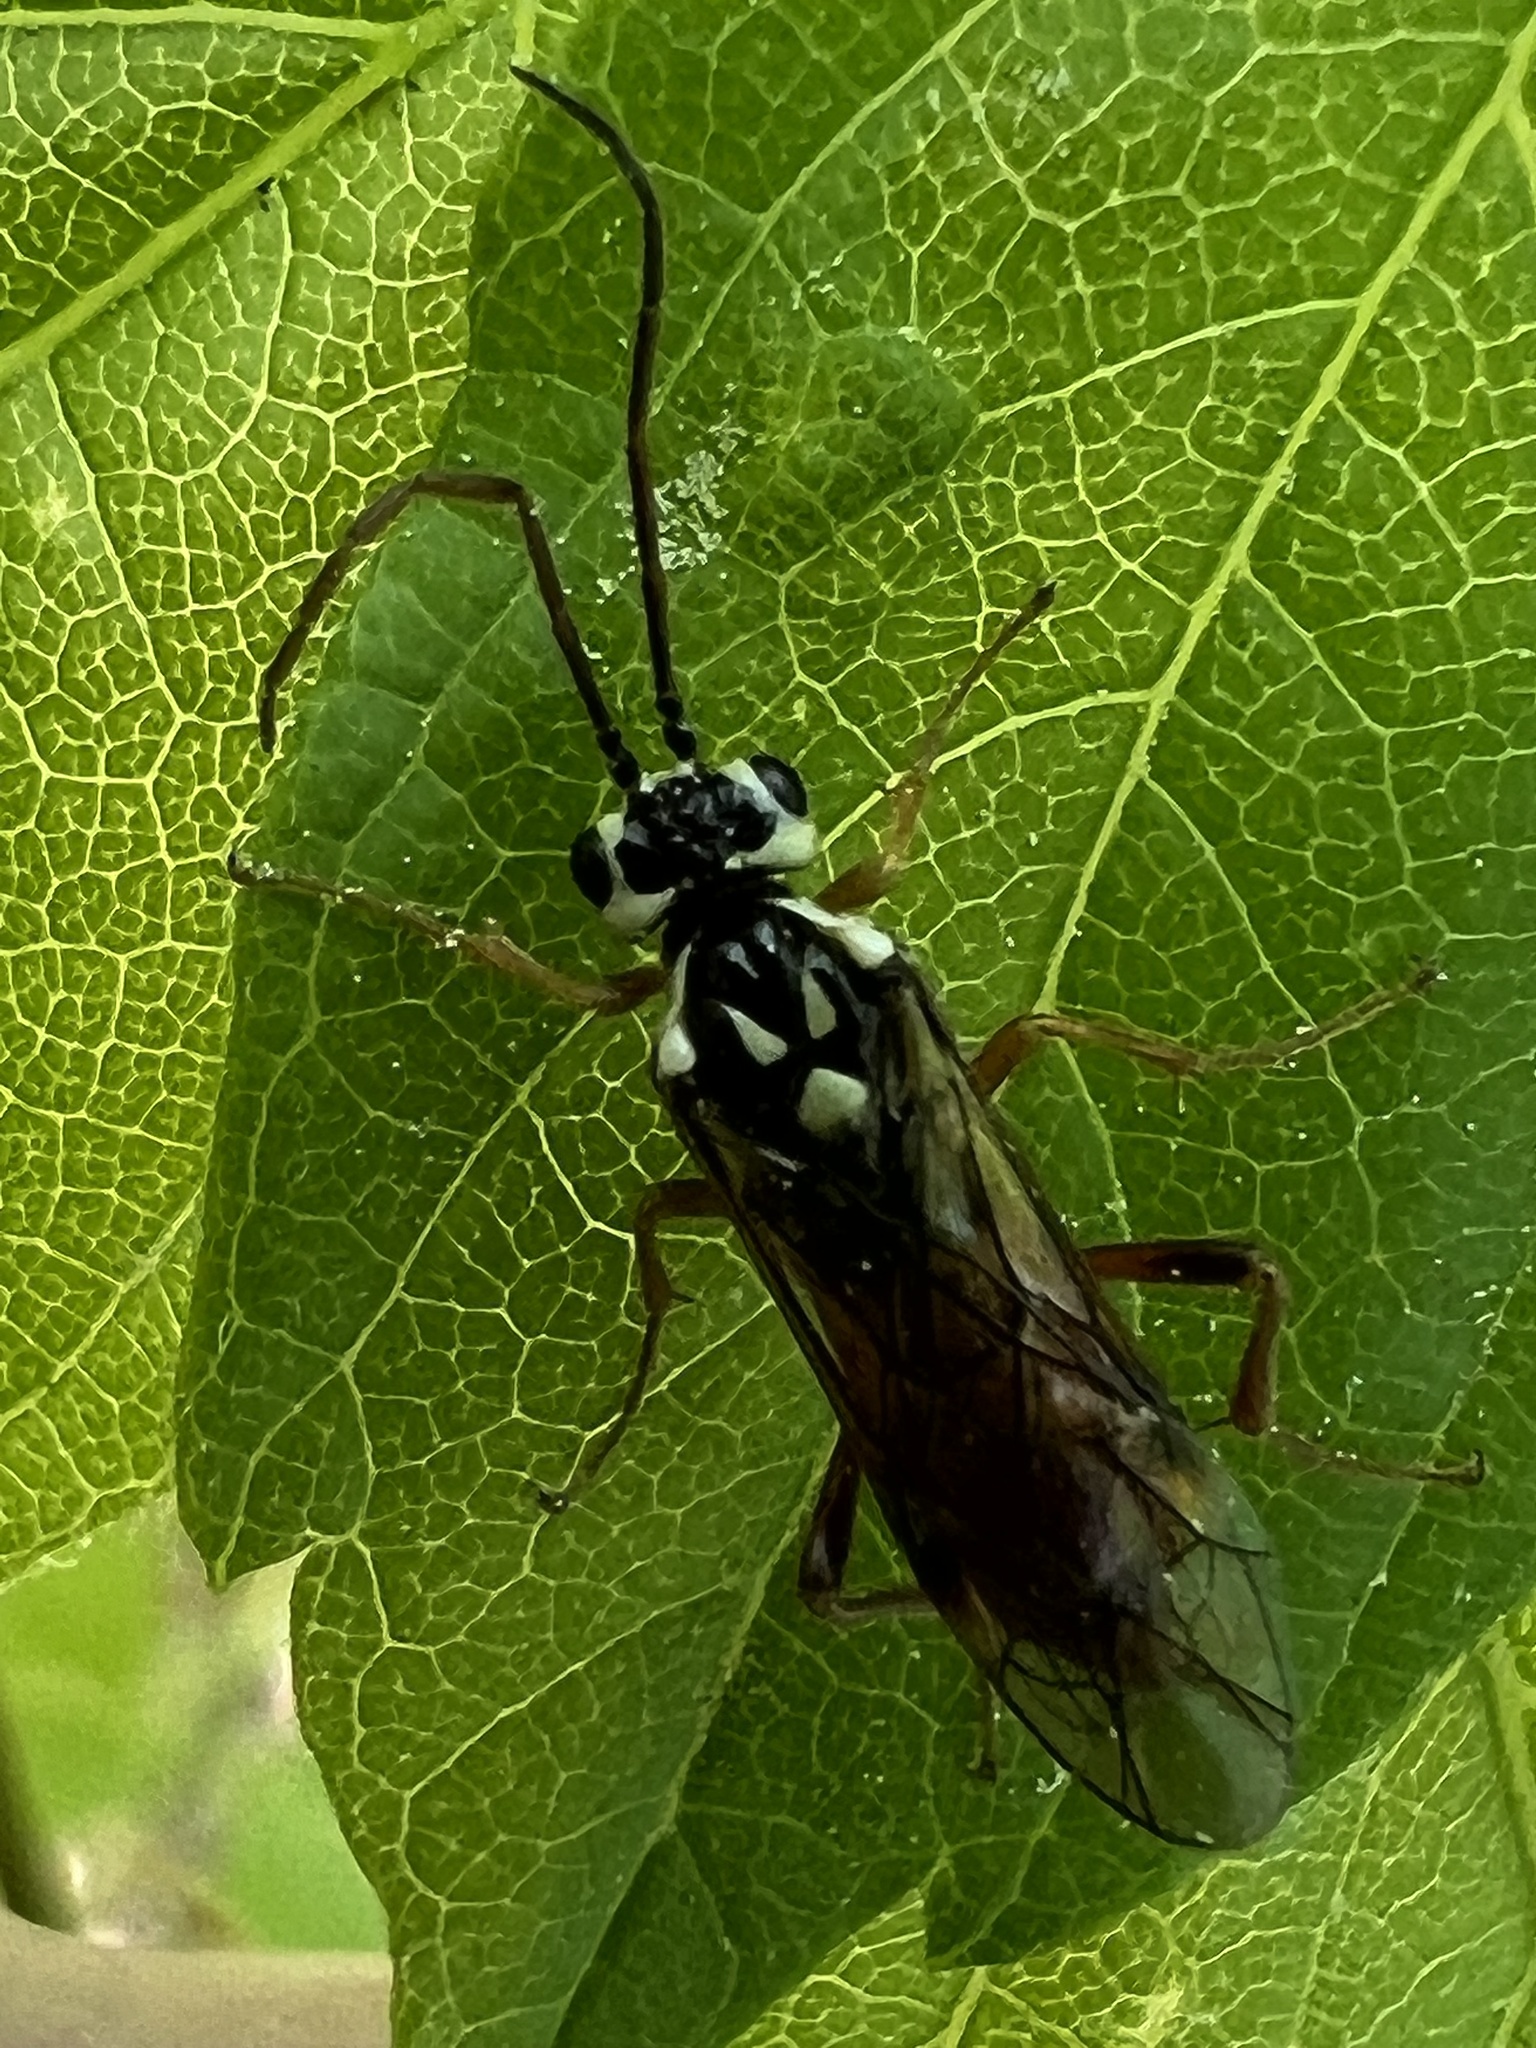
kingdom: Animalia
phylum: Arthropoda
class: Insecta
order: Hymenoptera
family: Tenthredinidae
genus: Aglaostigma
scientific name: Aglaostigma
